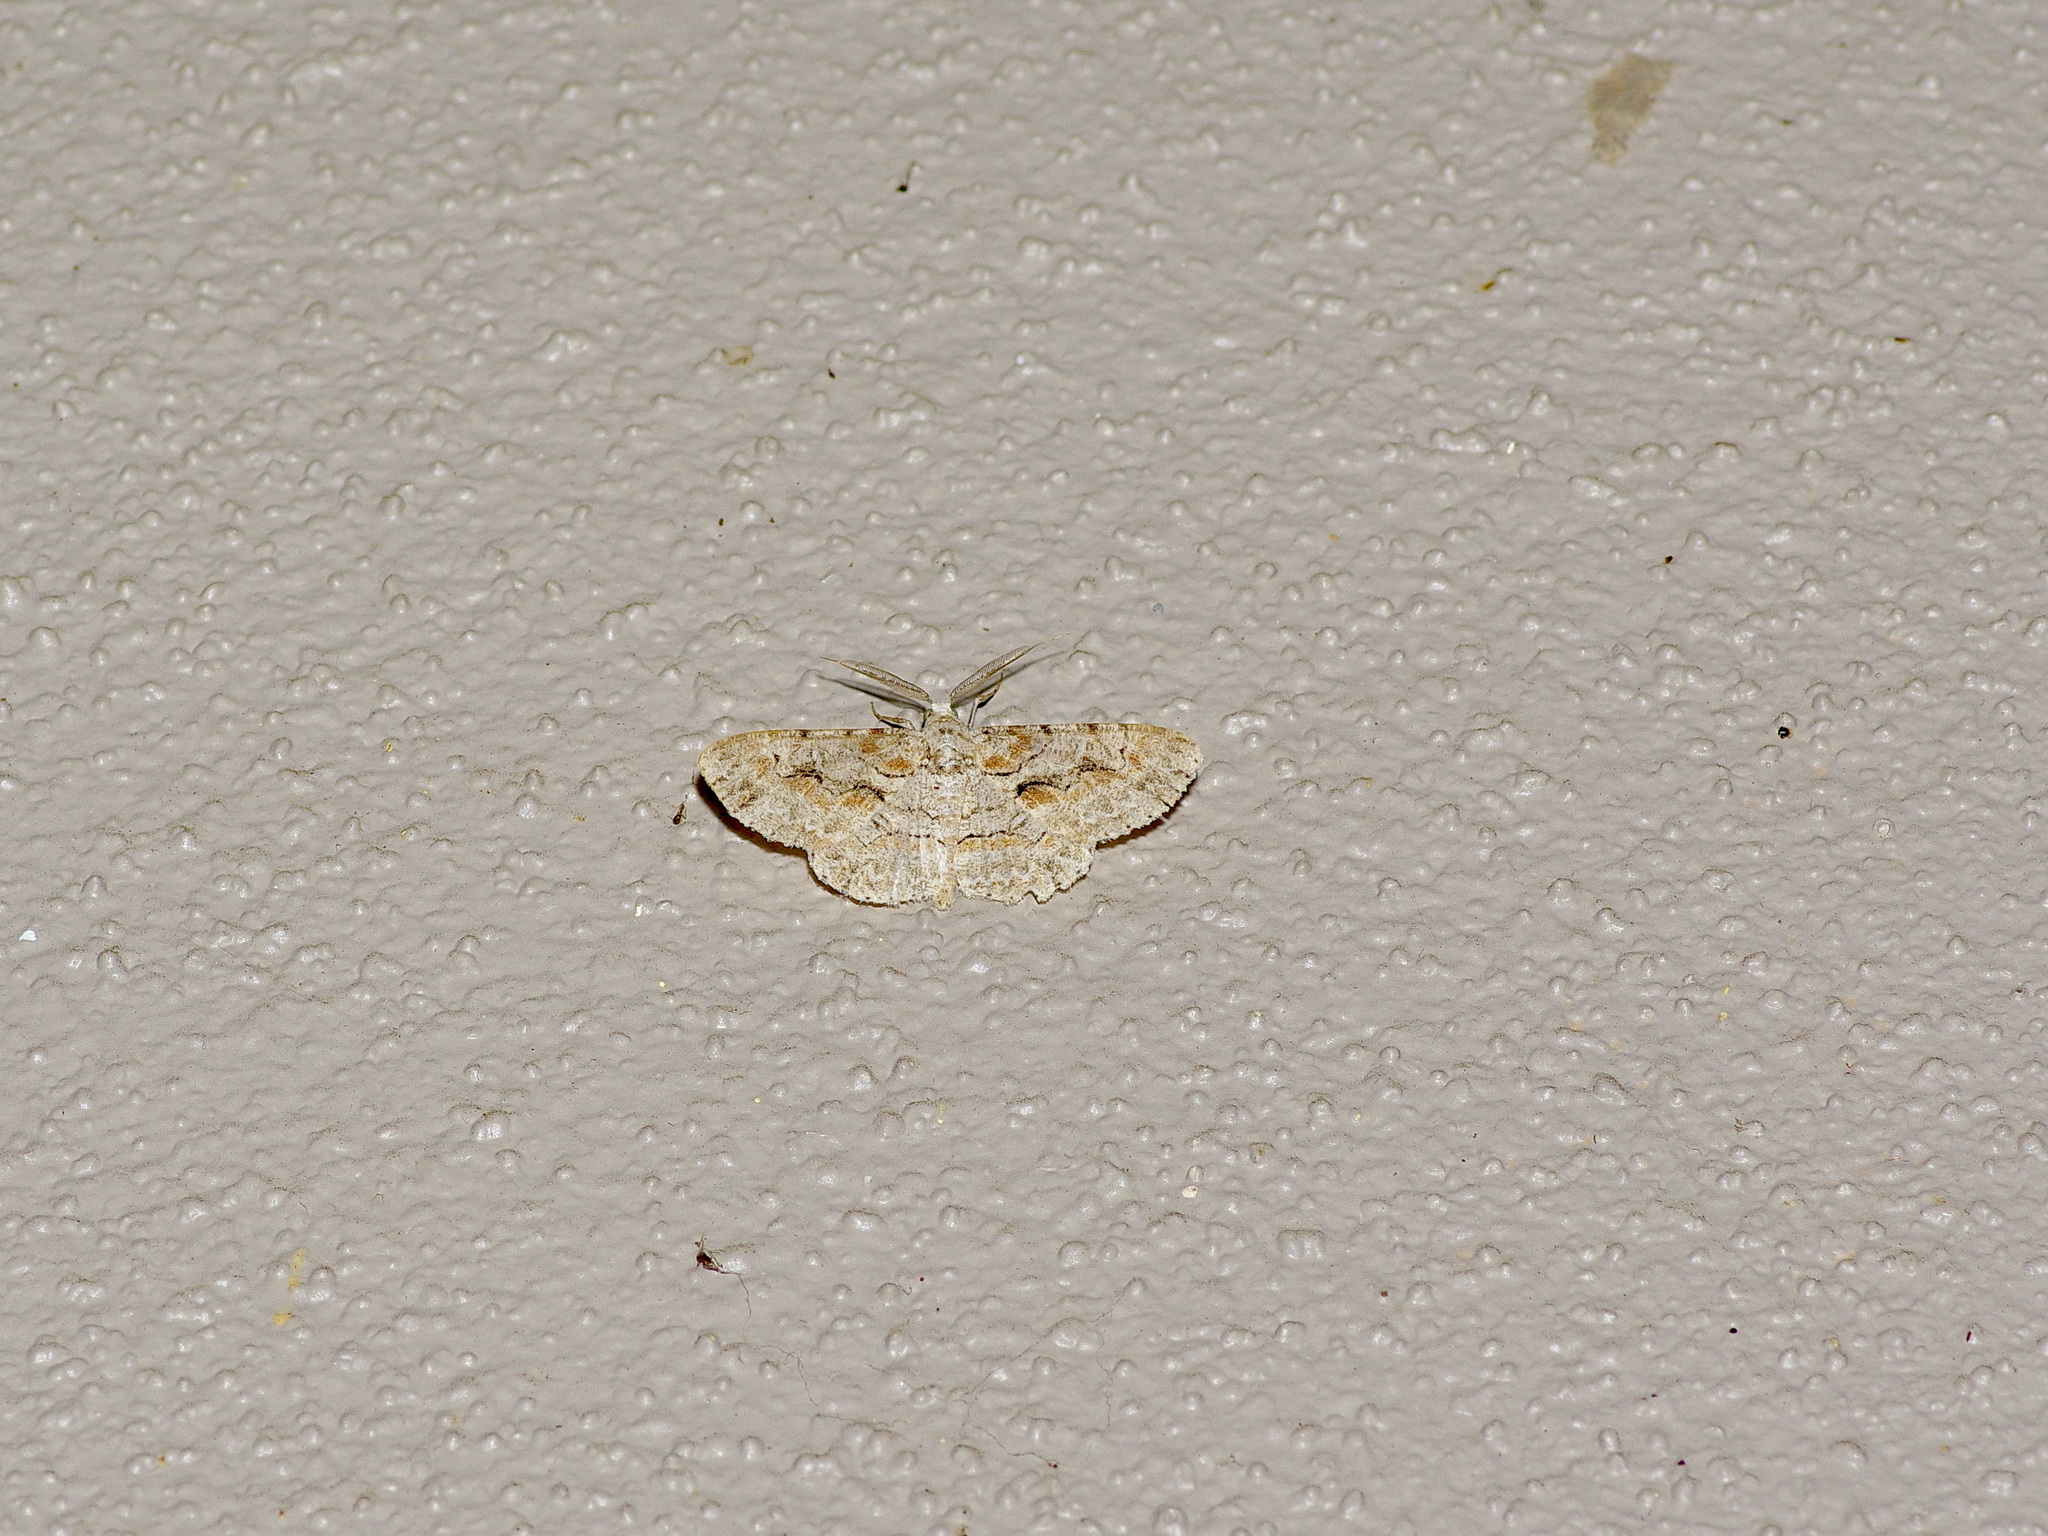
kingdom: Animalia
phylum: Arthropoda
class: Insecta
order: Lepidoptera
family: Geometridae
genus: Iridopsis
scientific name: Iridopsis defectaria
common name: Brown-shaded gray
